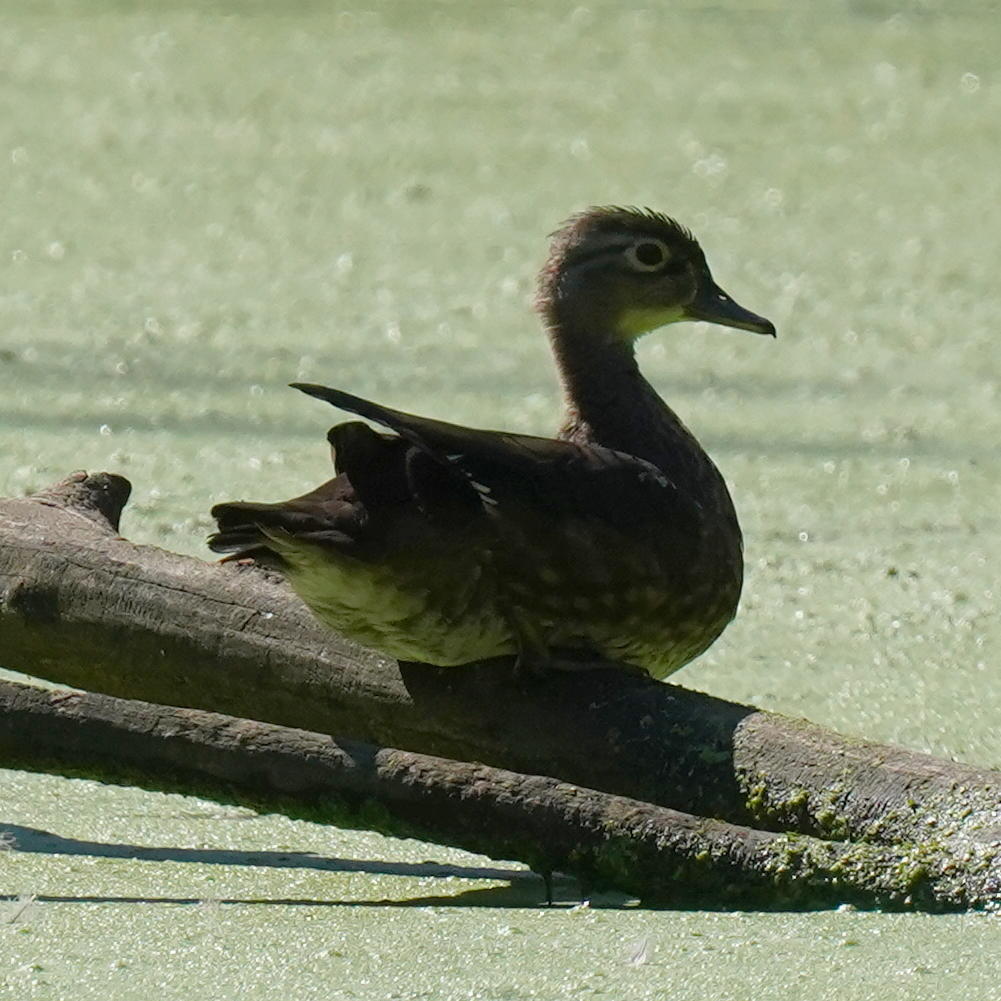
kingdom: Animalia
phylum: Chordata
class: Aves
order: Anseriformes
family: Anatidae
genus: Aix
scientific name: Aix sponsa
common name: Wood duck
